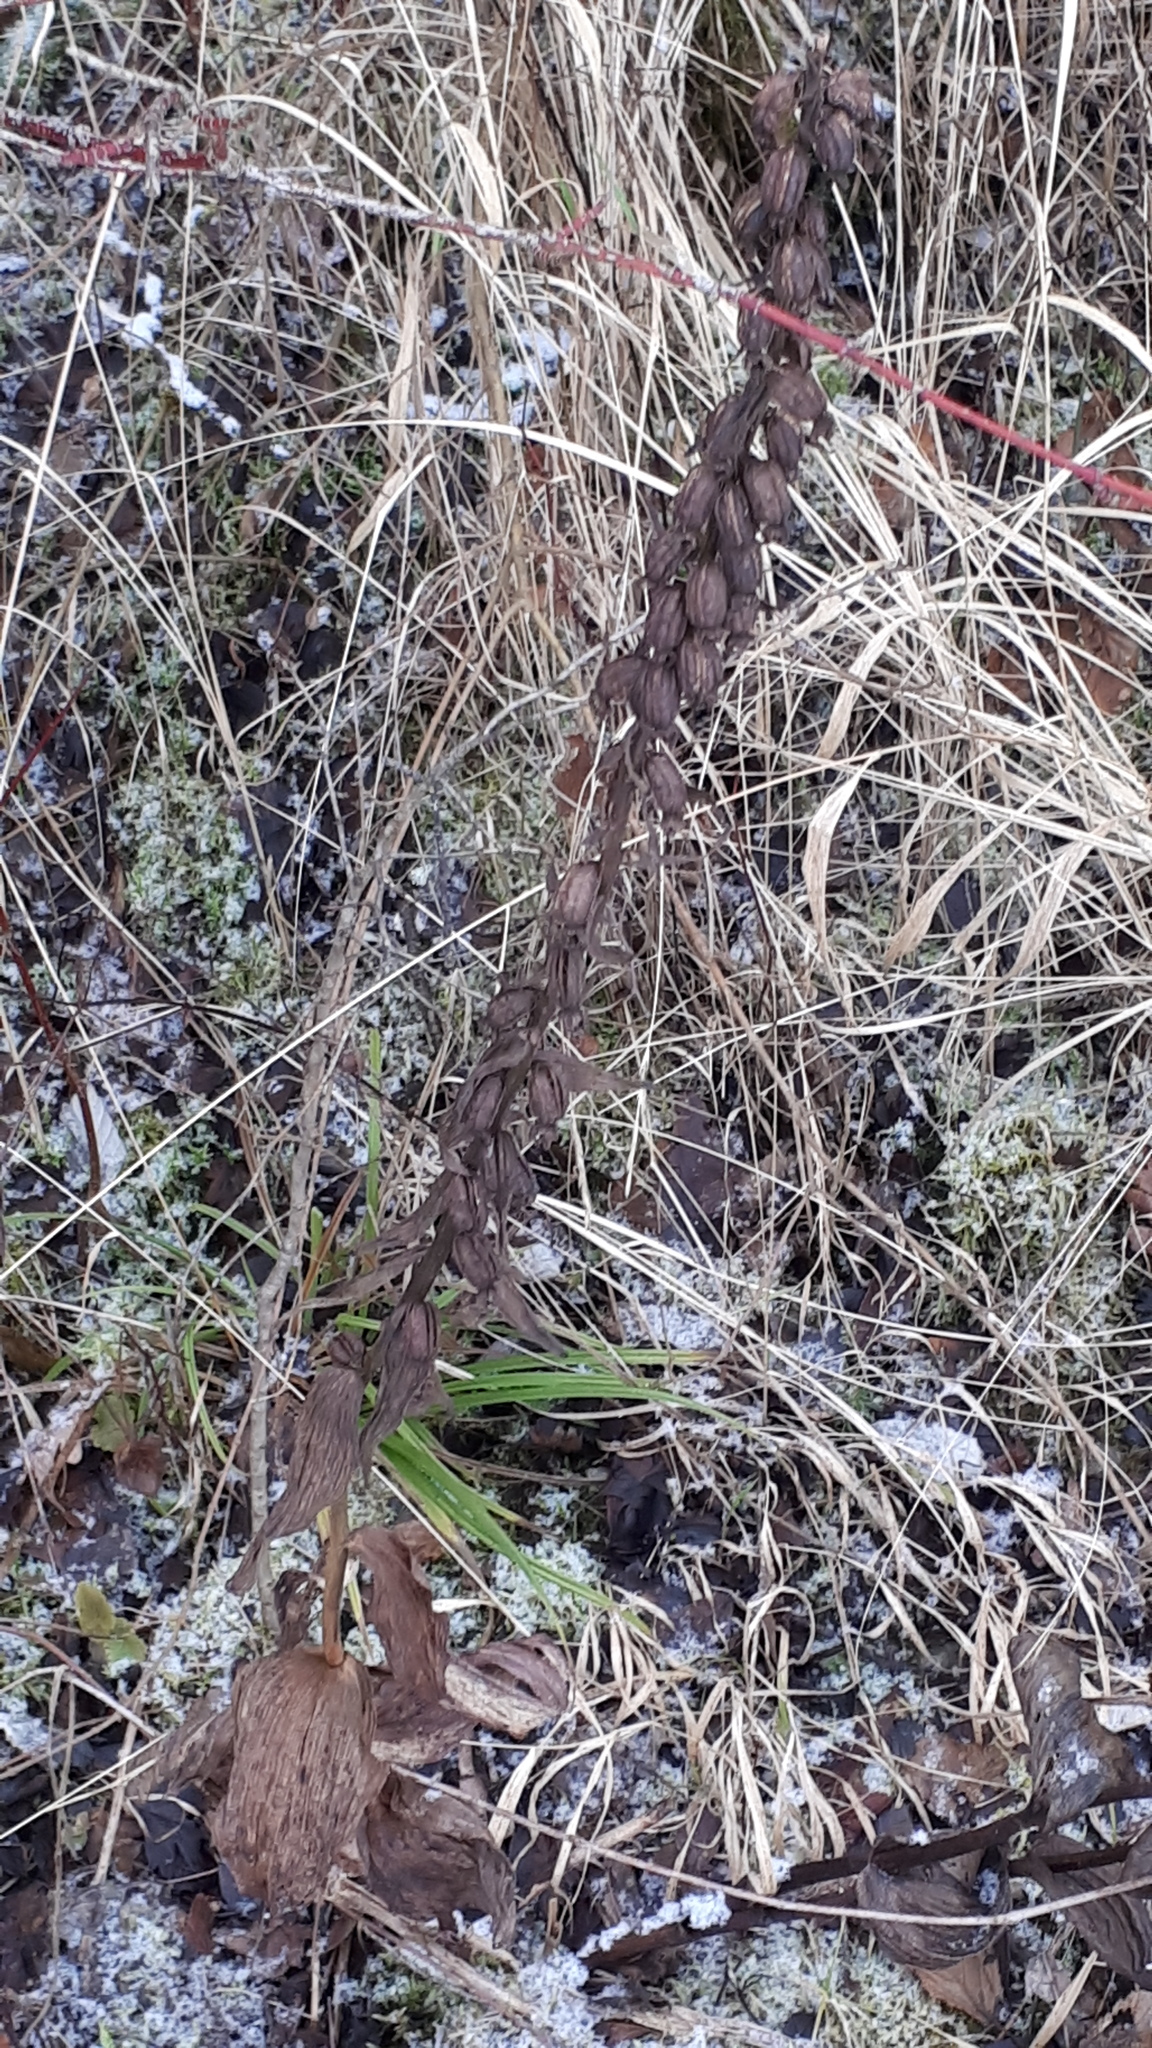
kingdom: Plantae
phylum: Tracheophyta
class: Liliopsida
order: Asparagales
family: Orchidaceae
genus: Epipactis
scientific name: Epipactis helleborine
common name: Broad-leaved helleborine
